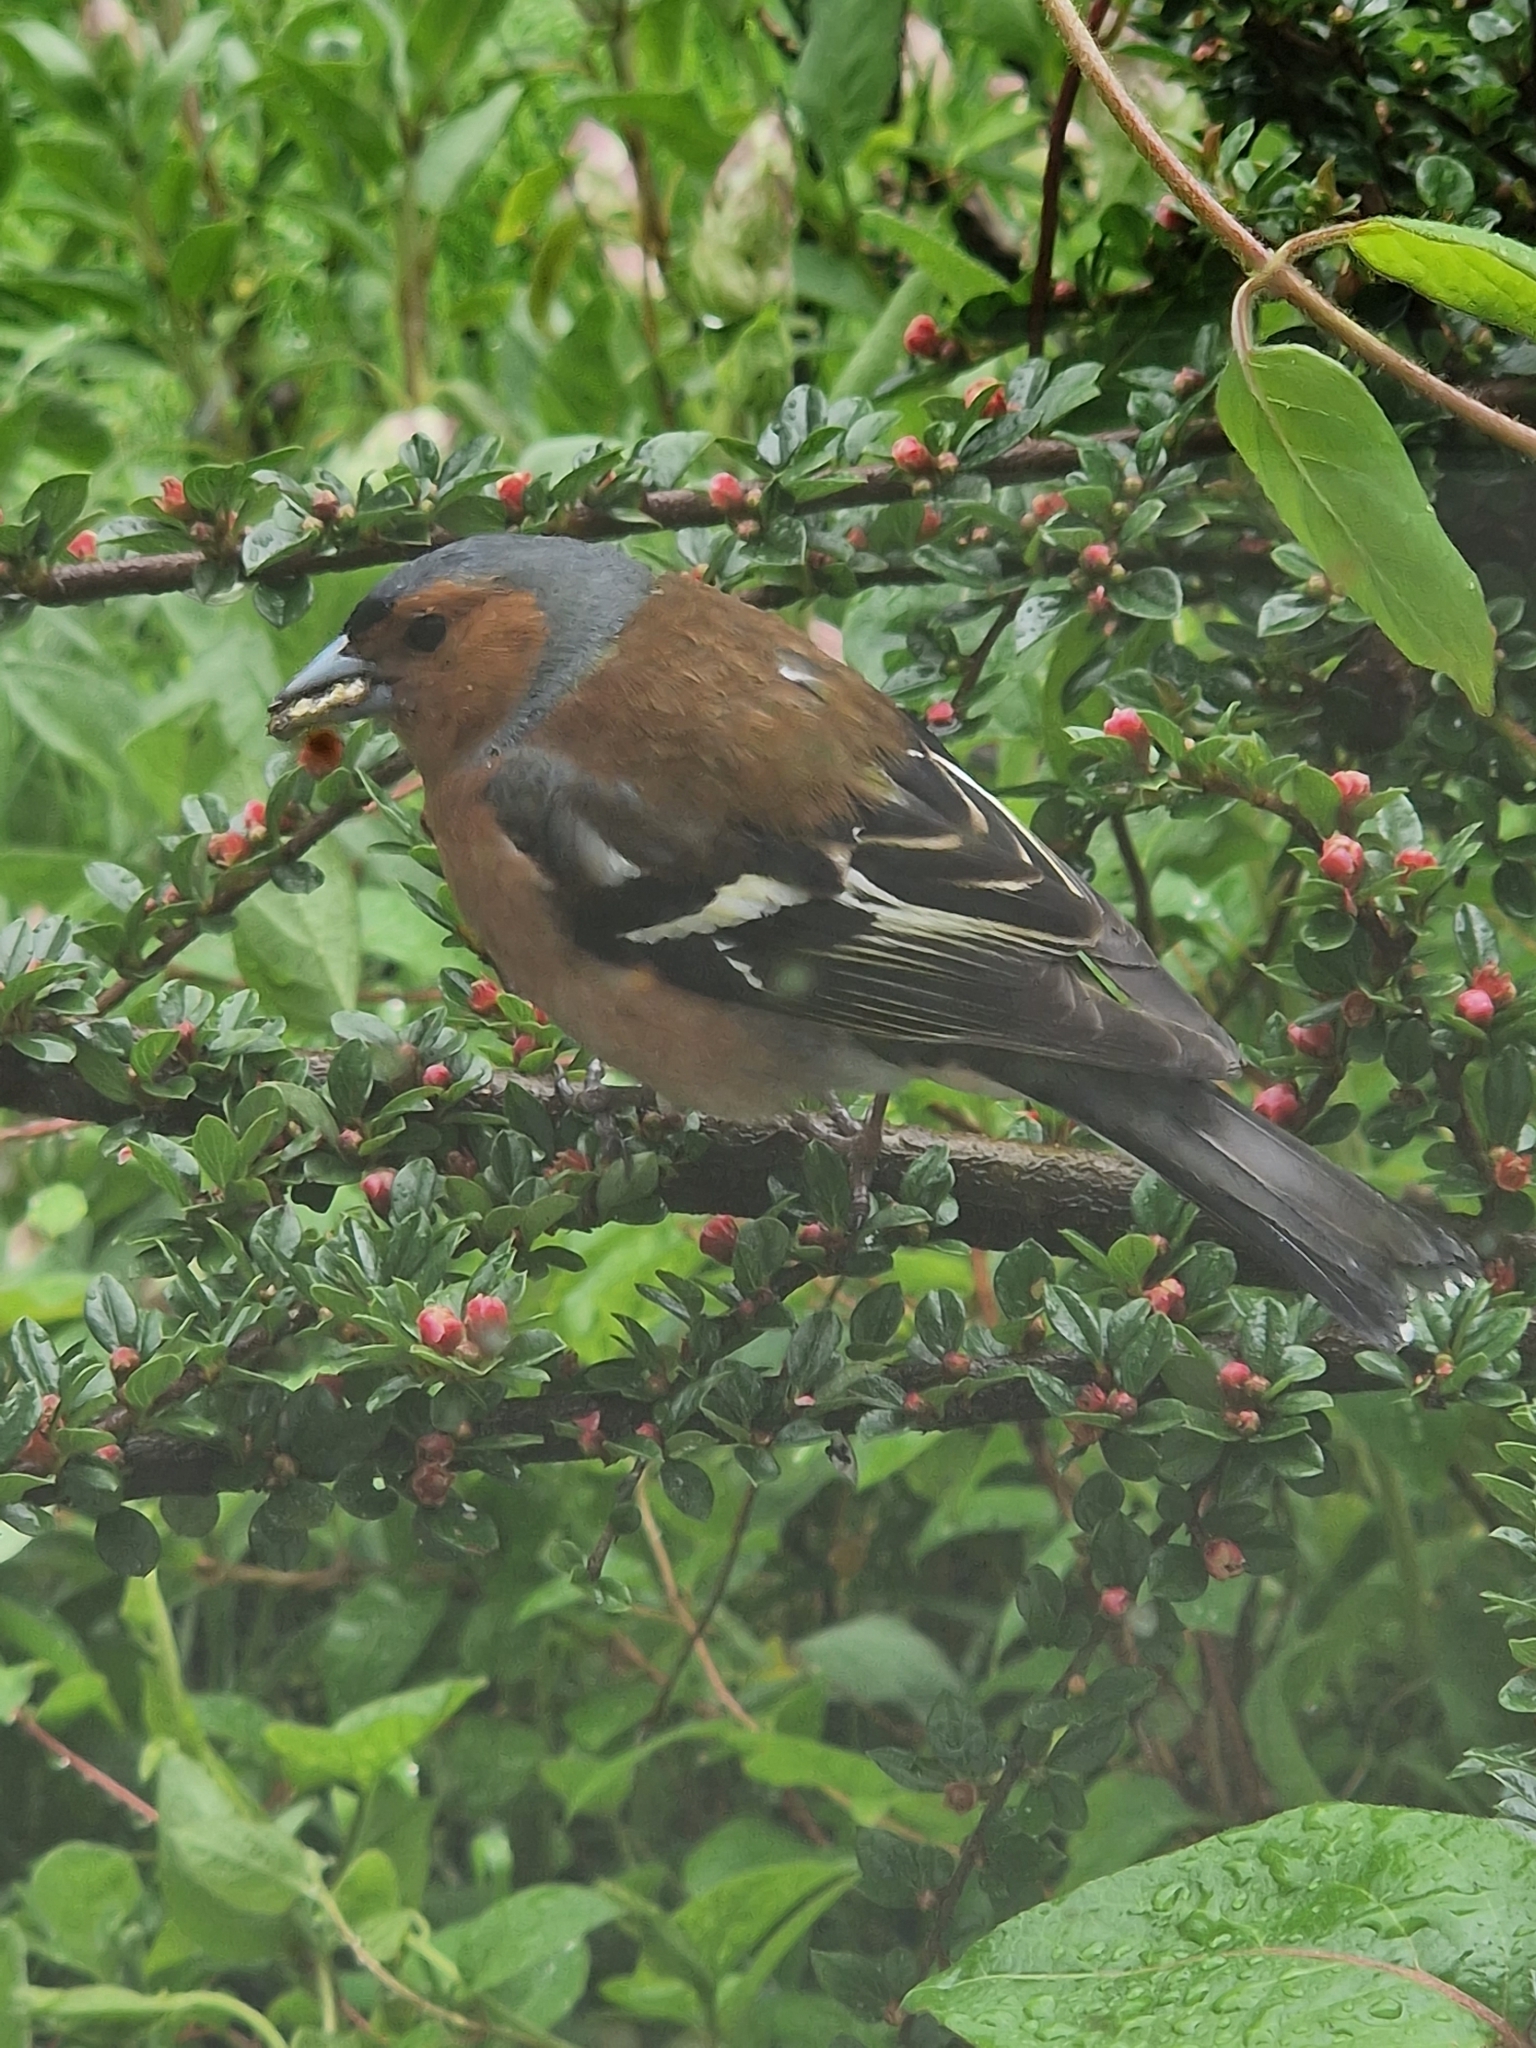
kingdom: Animalia
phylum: Chordata
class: Aves
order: Passeriformes
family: Fringillidae
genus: Fringilla
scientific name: Fringilla coelebs
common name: Common chaffinch
